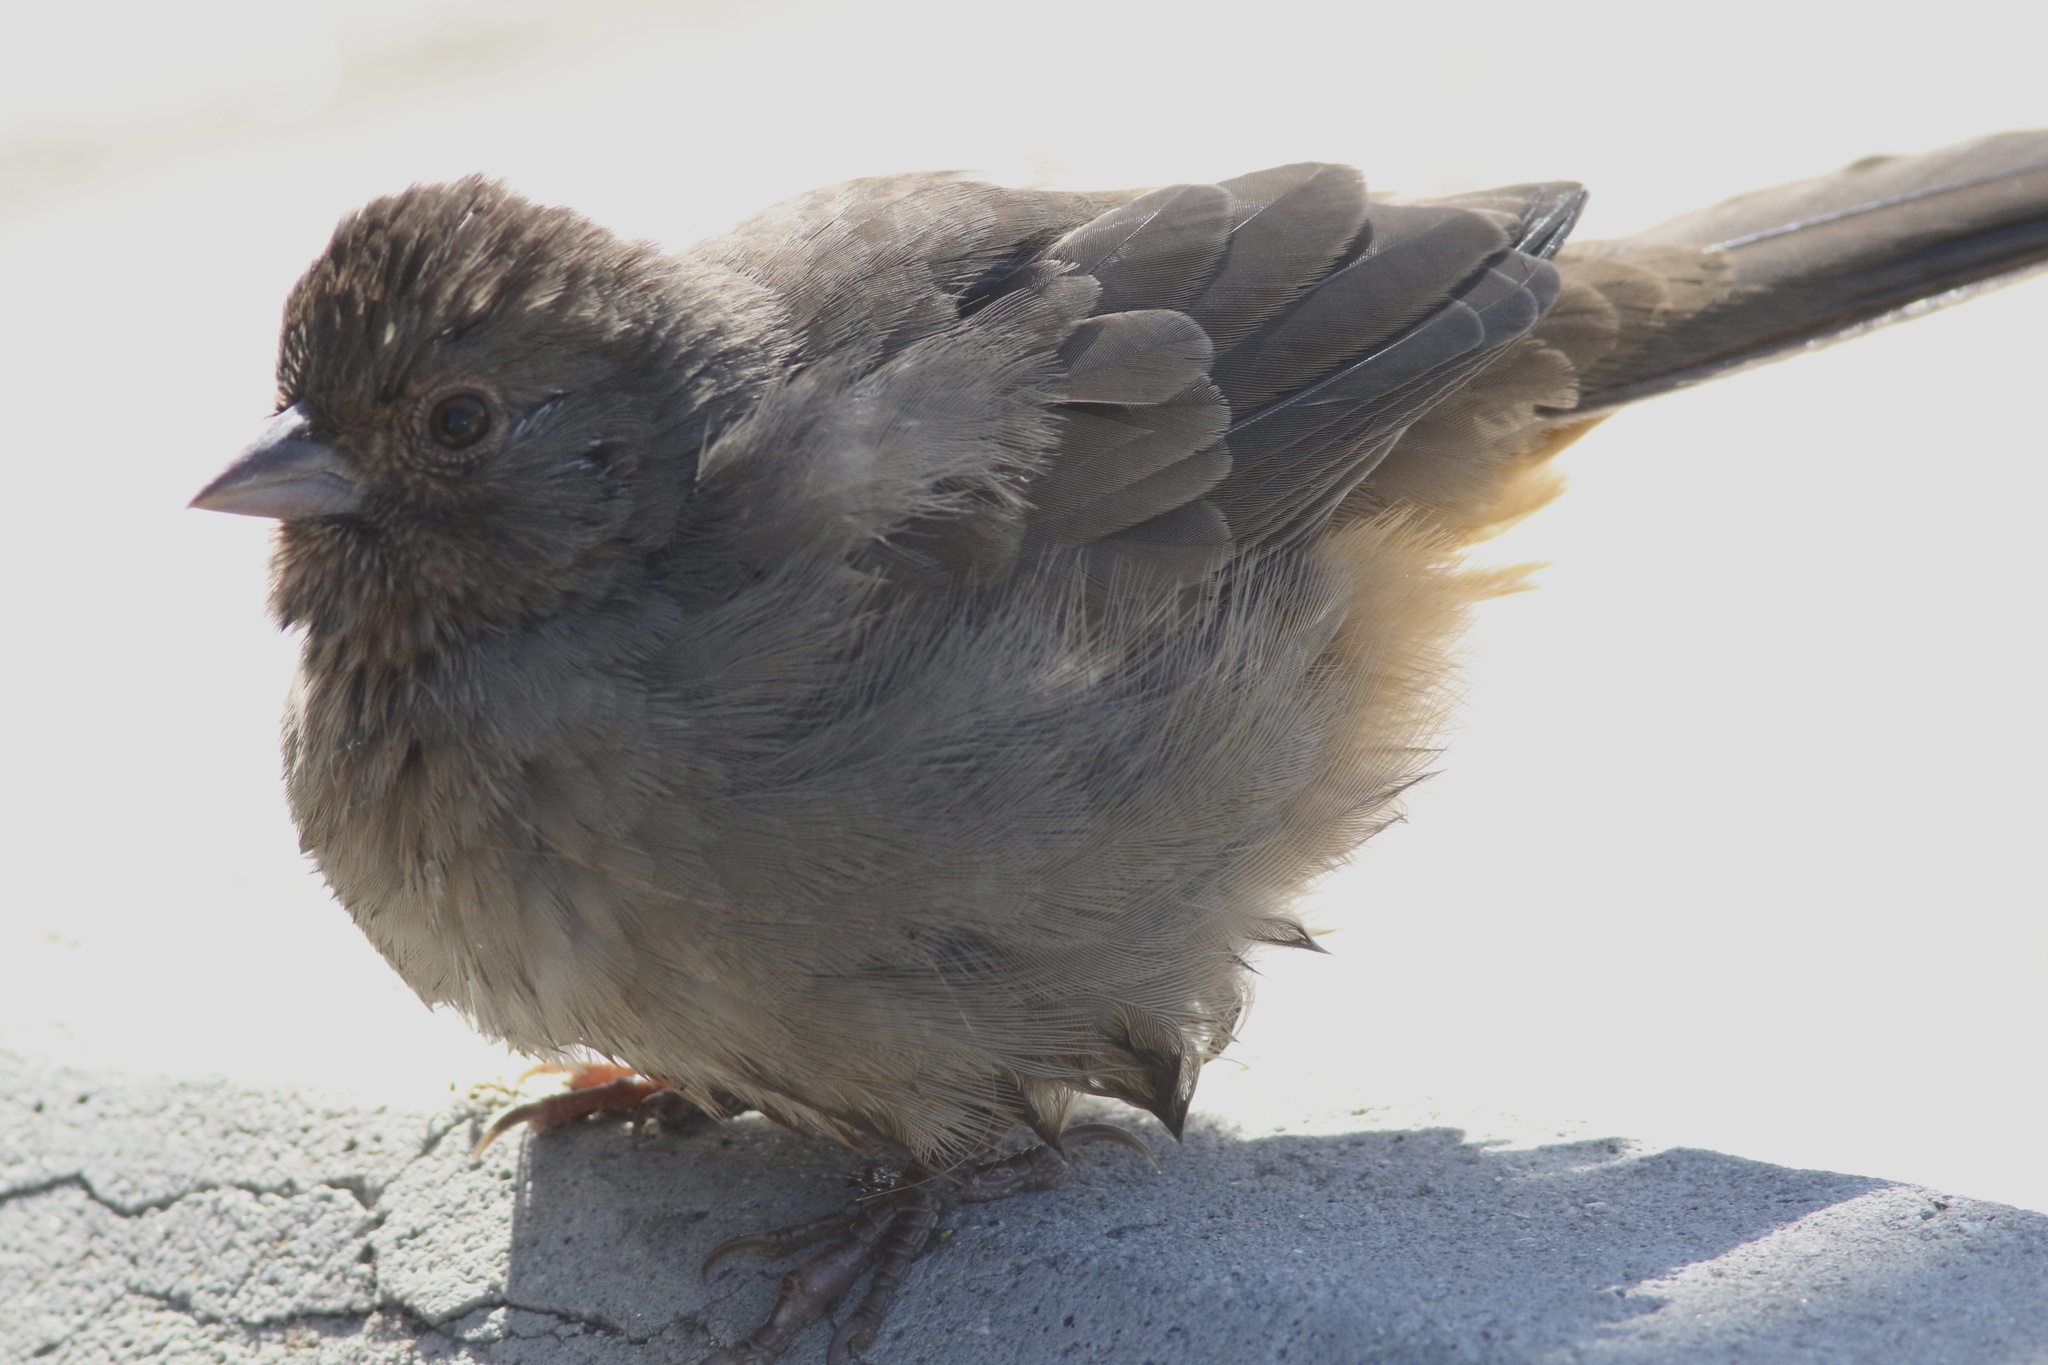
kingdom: Animalia
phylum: Chordata
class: Aves
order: Passeriformes
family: Passerellidae
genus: Melozone
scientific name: Melozone crissalis
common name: California towhee
